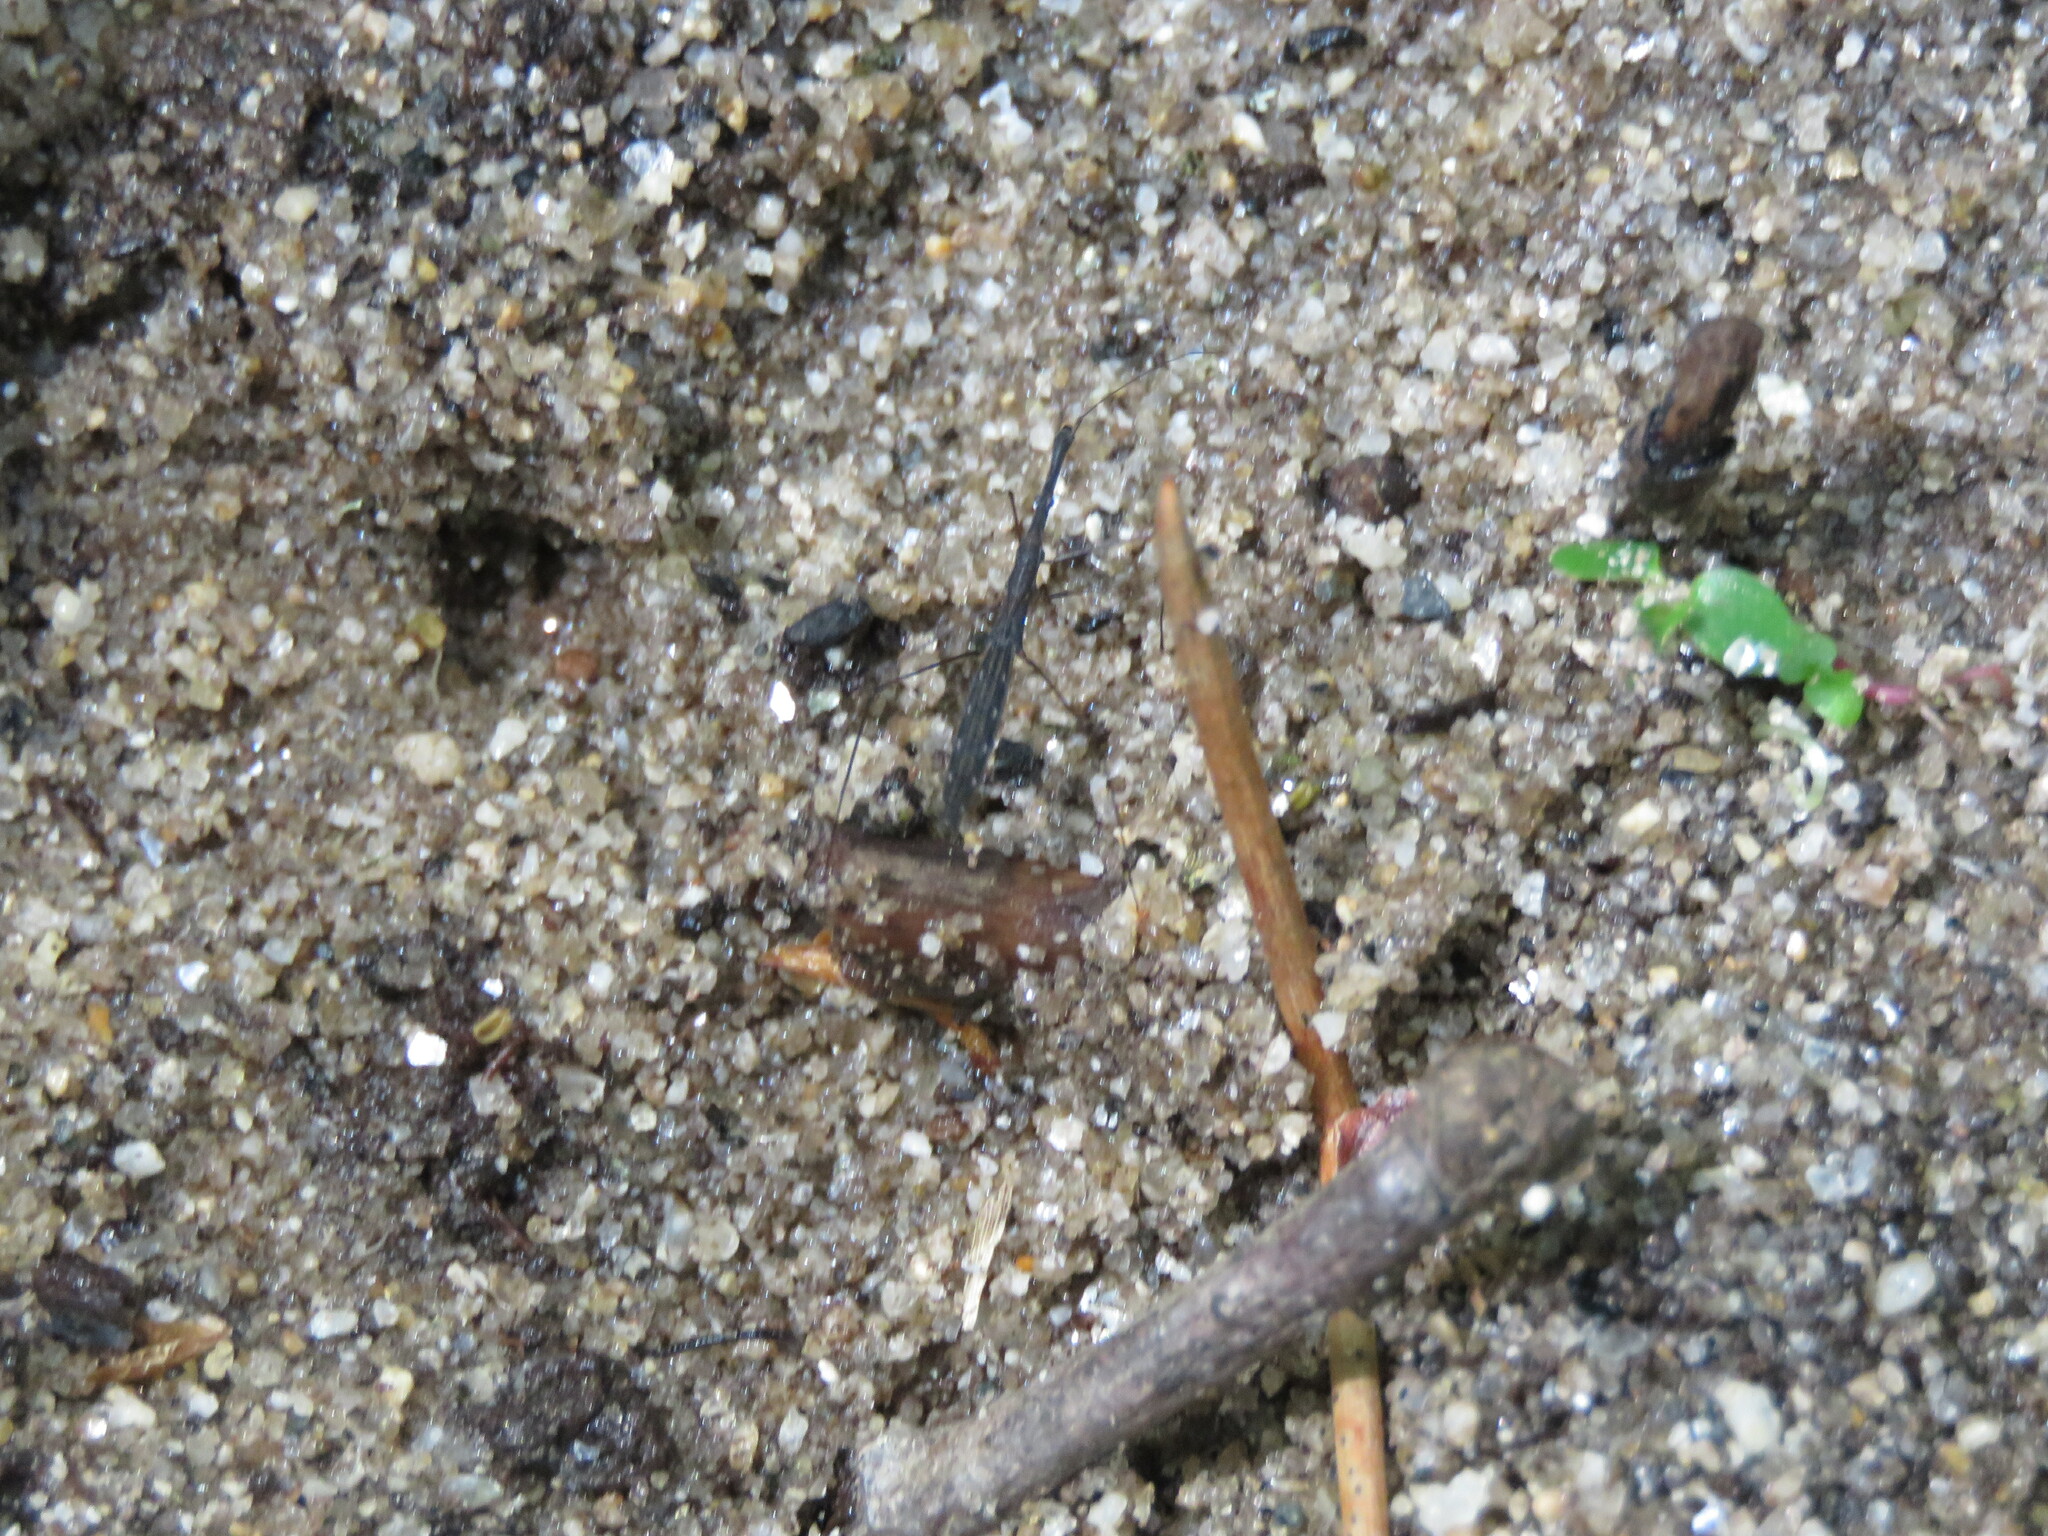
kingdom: Animalia
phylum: Arthropoda
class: Insecta
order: Hemiptera
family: Hydrometridae
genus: Hydrometra
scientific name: Hydrometra stagnorum
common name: Water measurer
